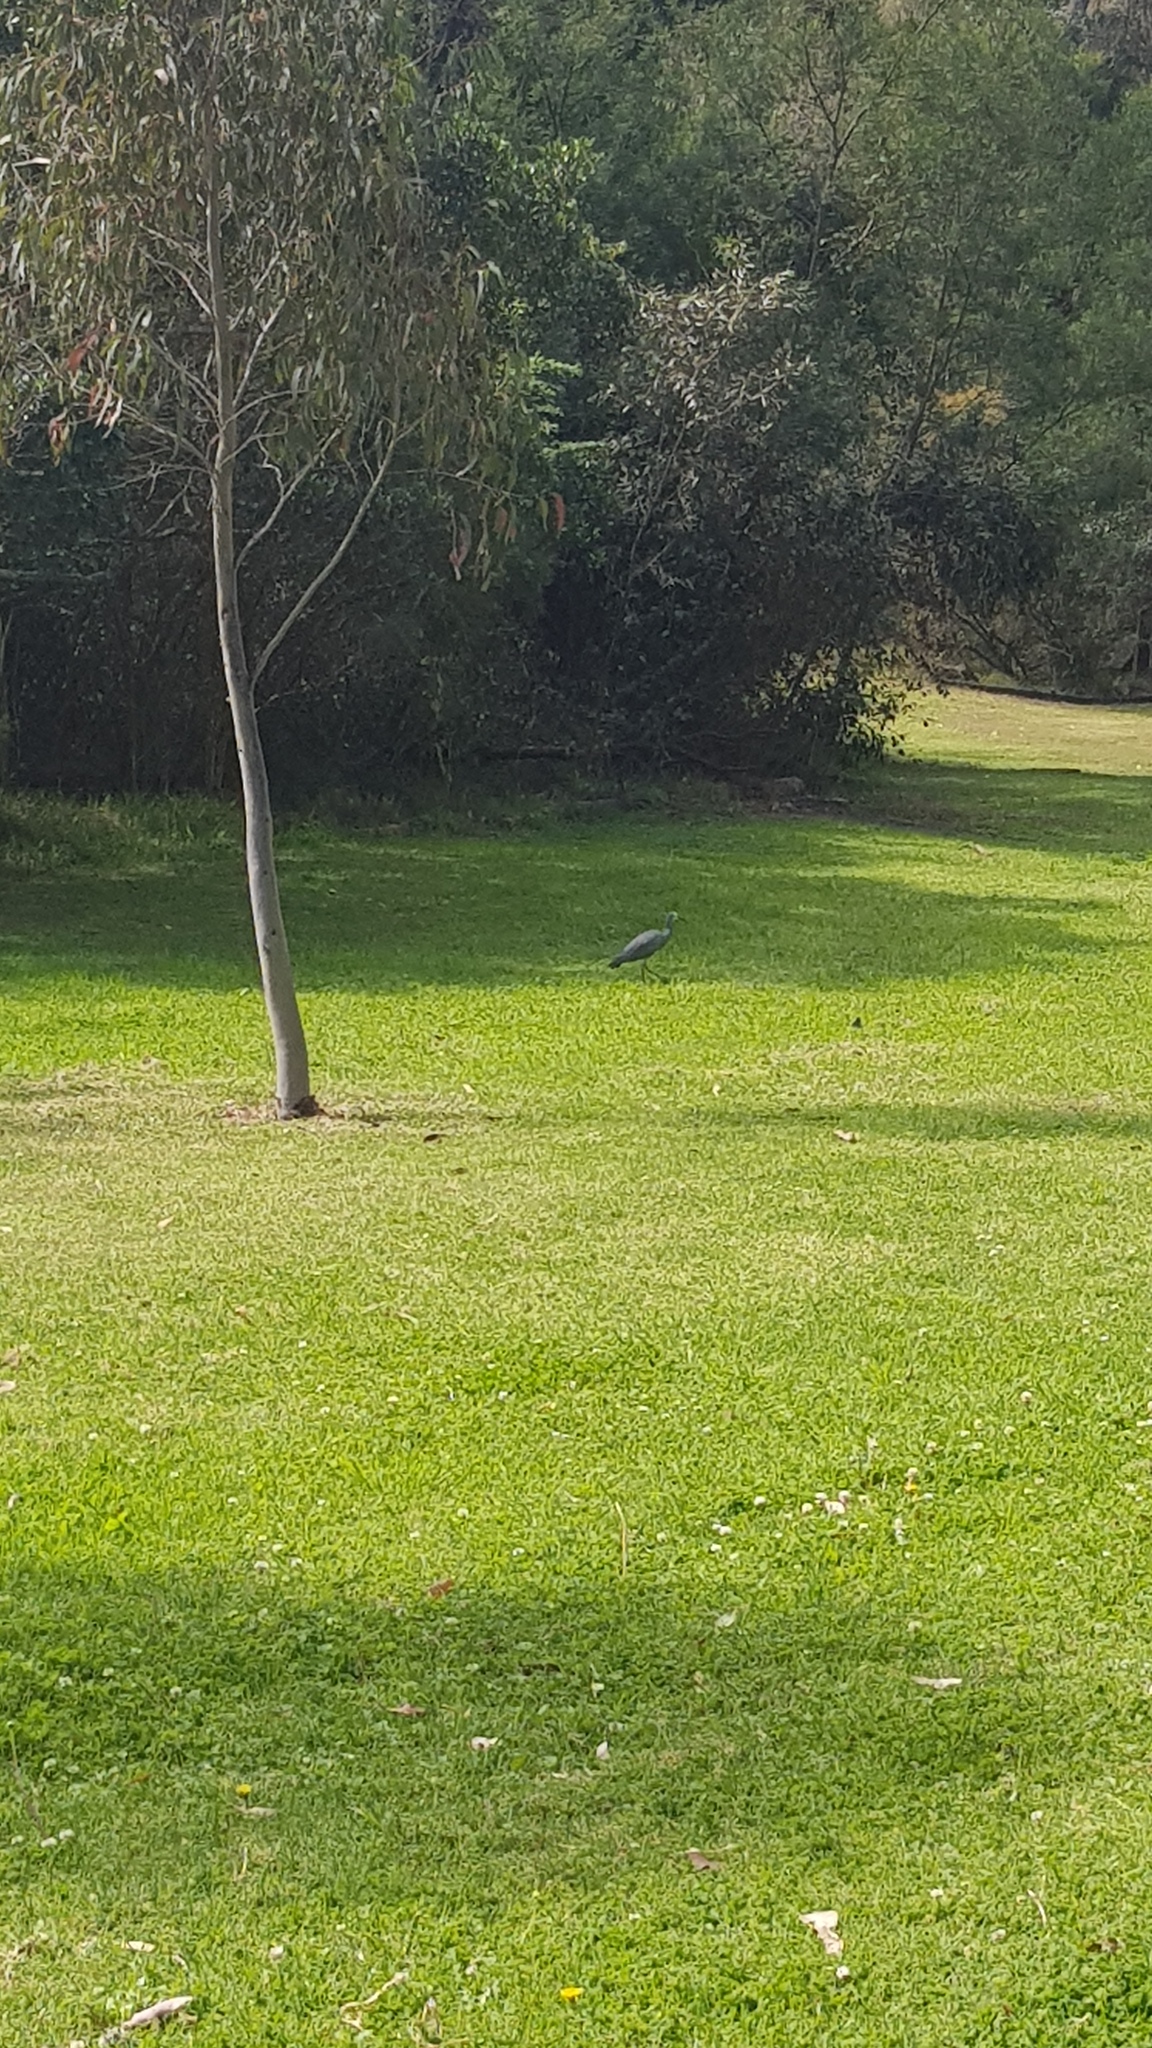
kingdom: Animalia
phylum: Chordata
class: Aves
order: Pelecaniformes
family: Ardeidae
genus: Egretta
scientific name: Egretta novaehollandiae
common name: White-faced heron
